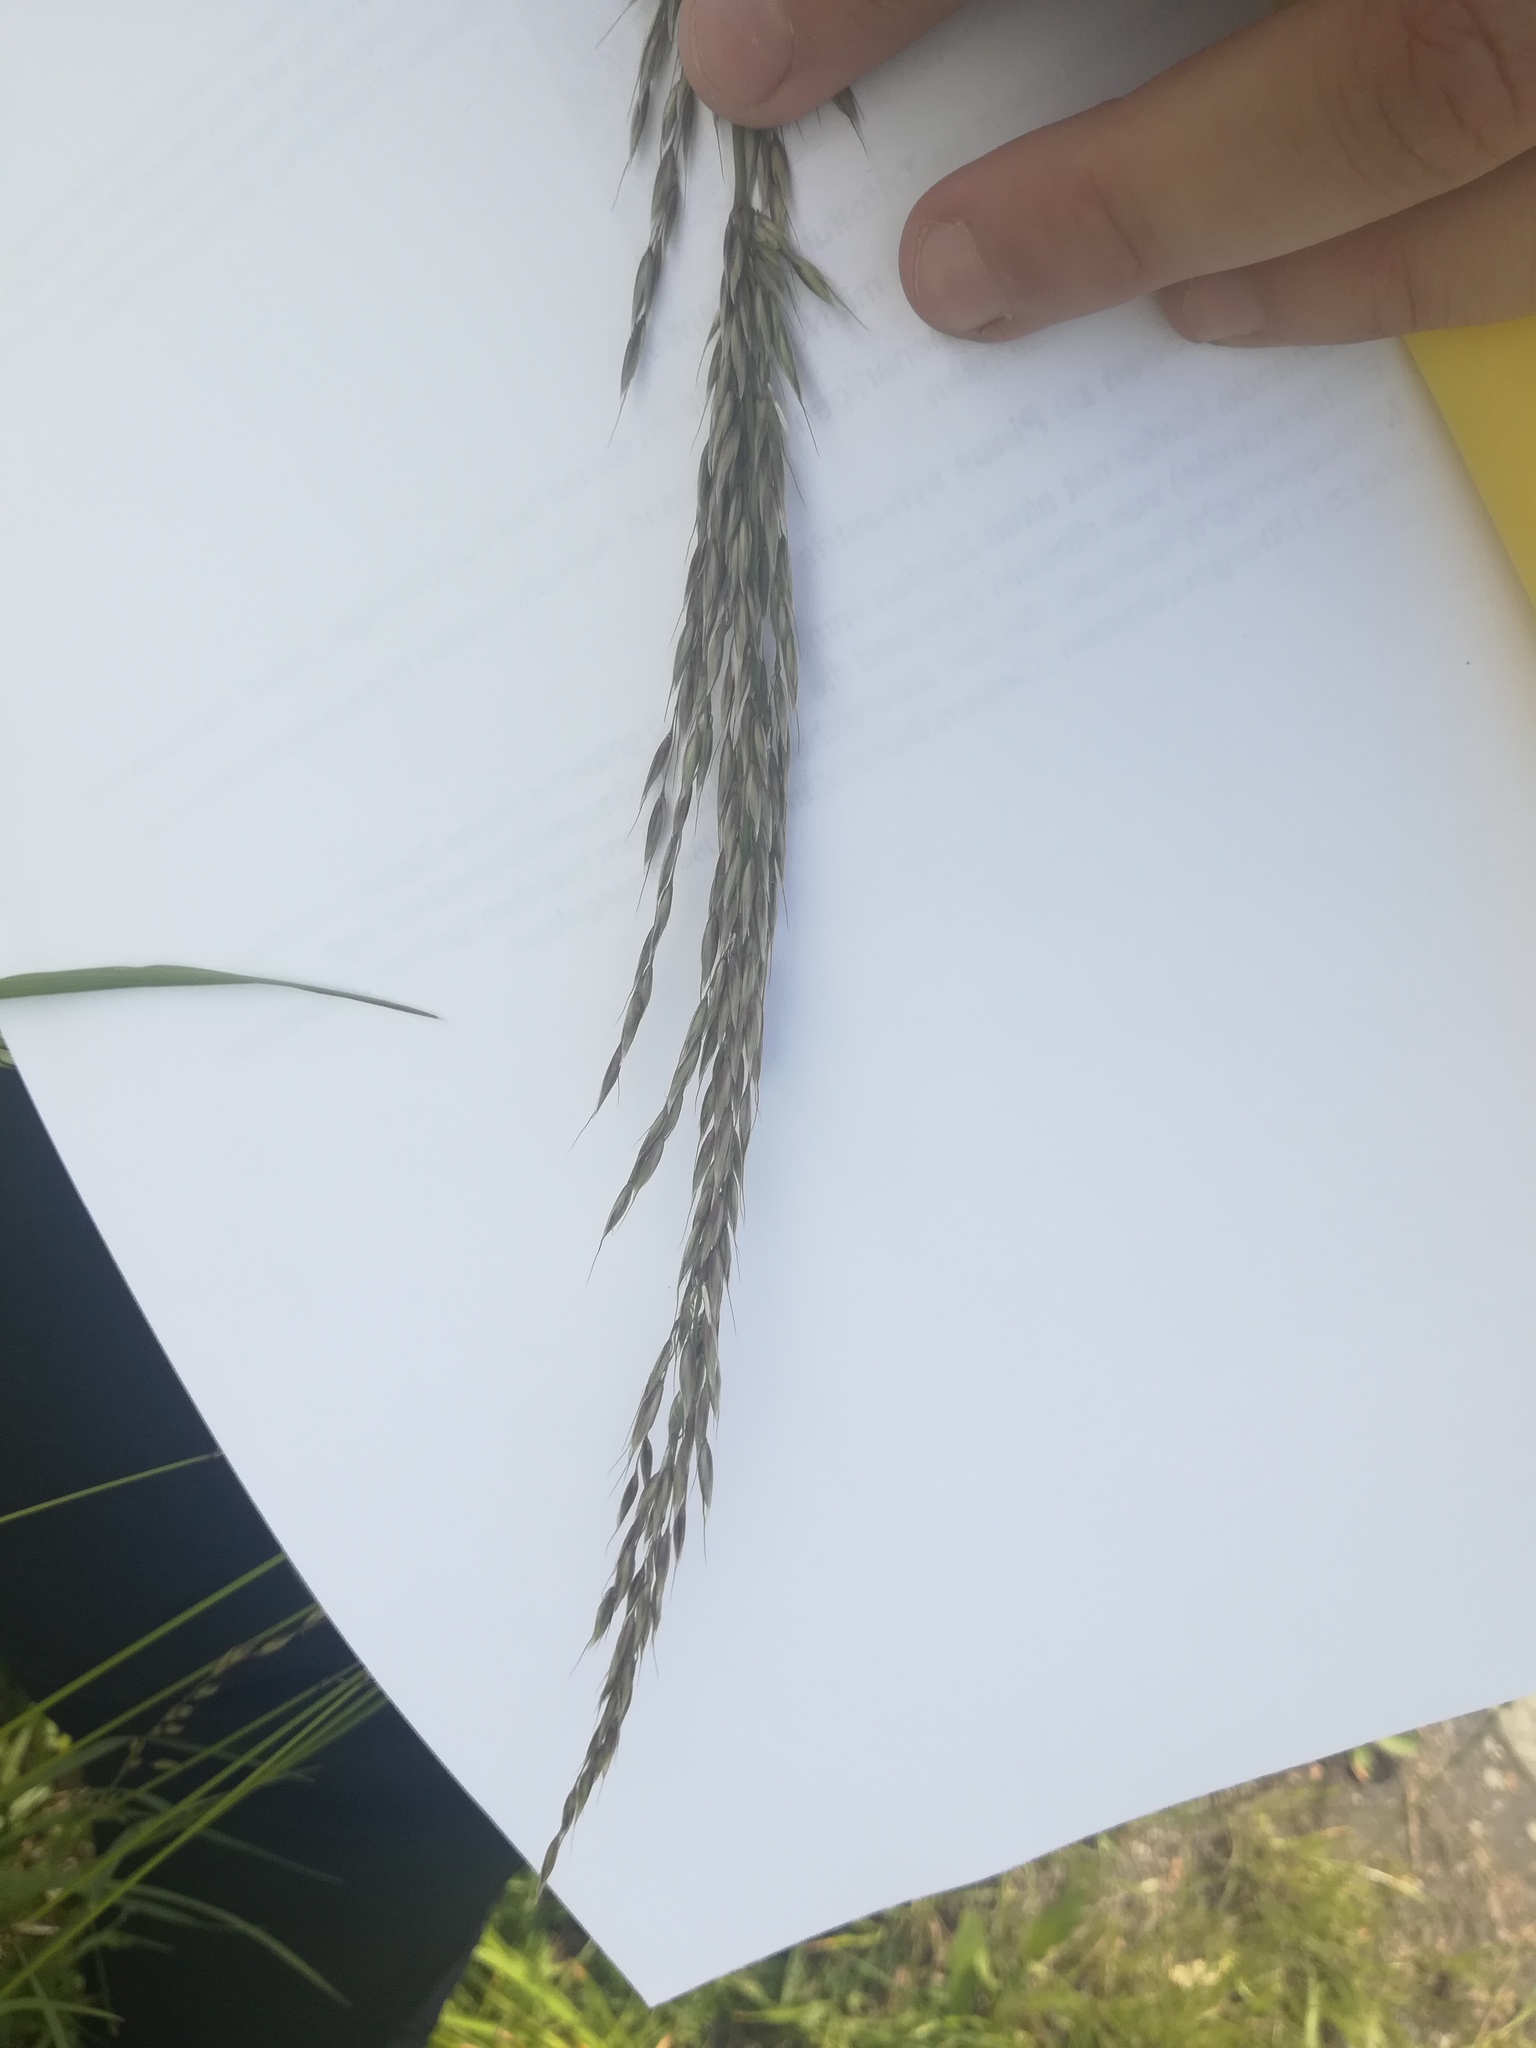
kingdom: Plantae
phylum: Tracheophyta
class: Liliopsida
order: Poales
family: Poaceae
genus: Arrhenatherum
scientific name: Arrhenatherum elatius
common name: Tall oatgrass
